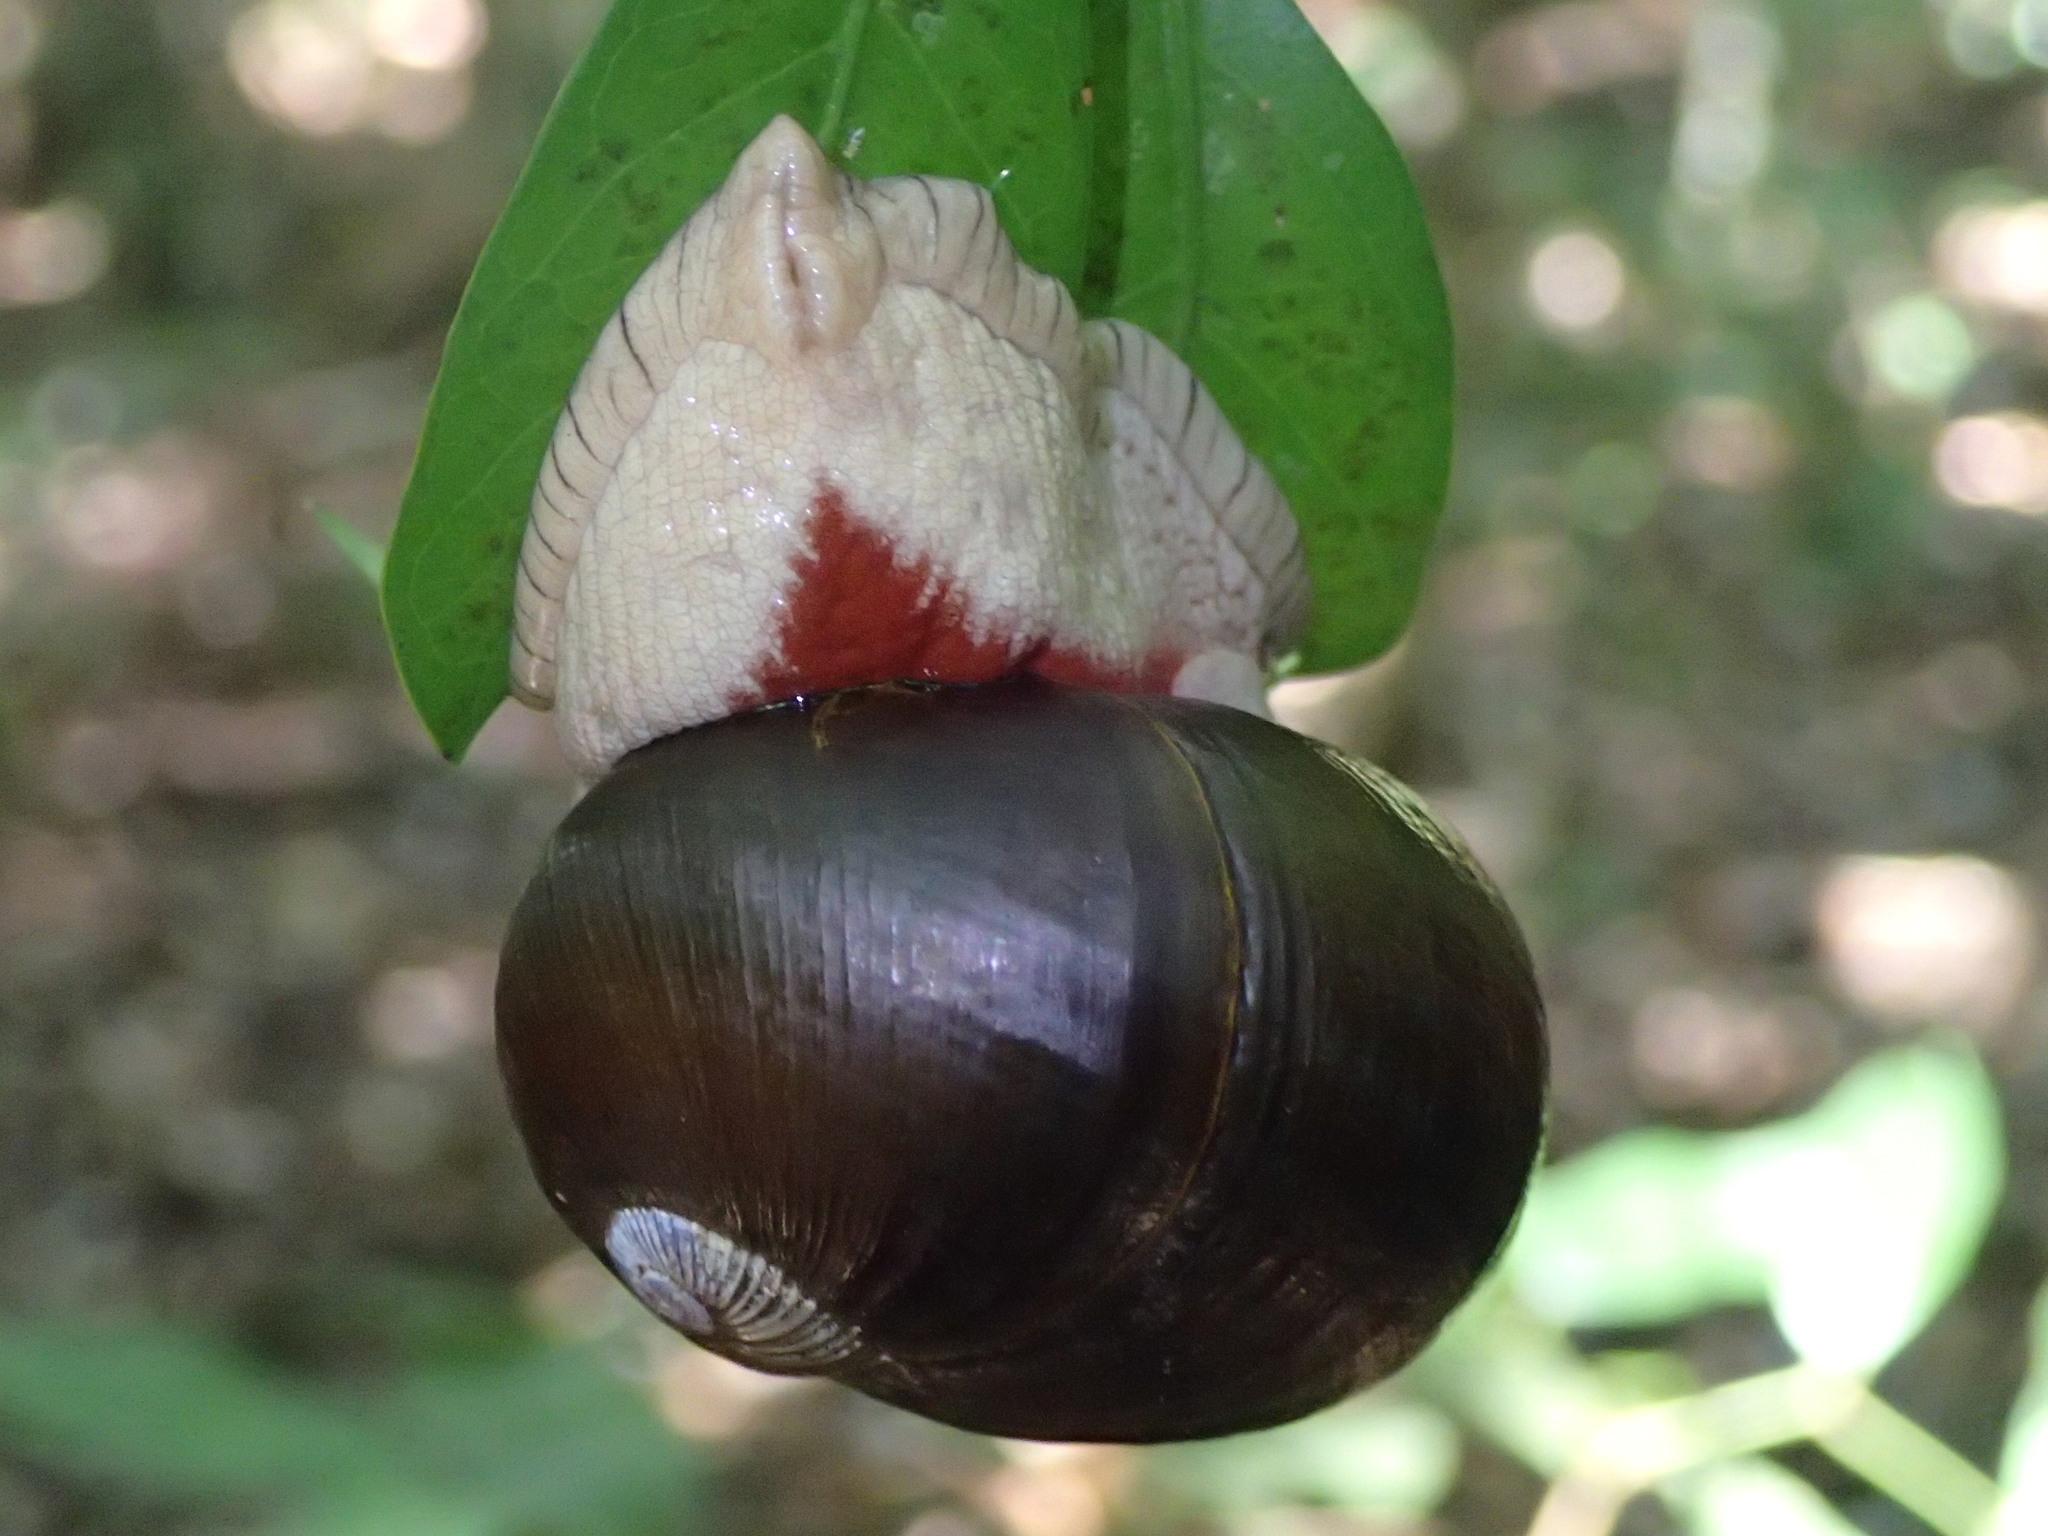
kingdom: Animalia
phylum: Mollusca
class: Gastropoda
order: Stylommatophora
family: Ariophantidae
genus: Indrella
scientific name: Indrella ampulla
